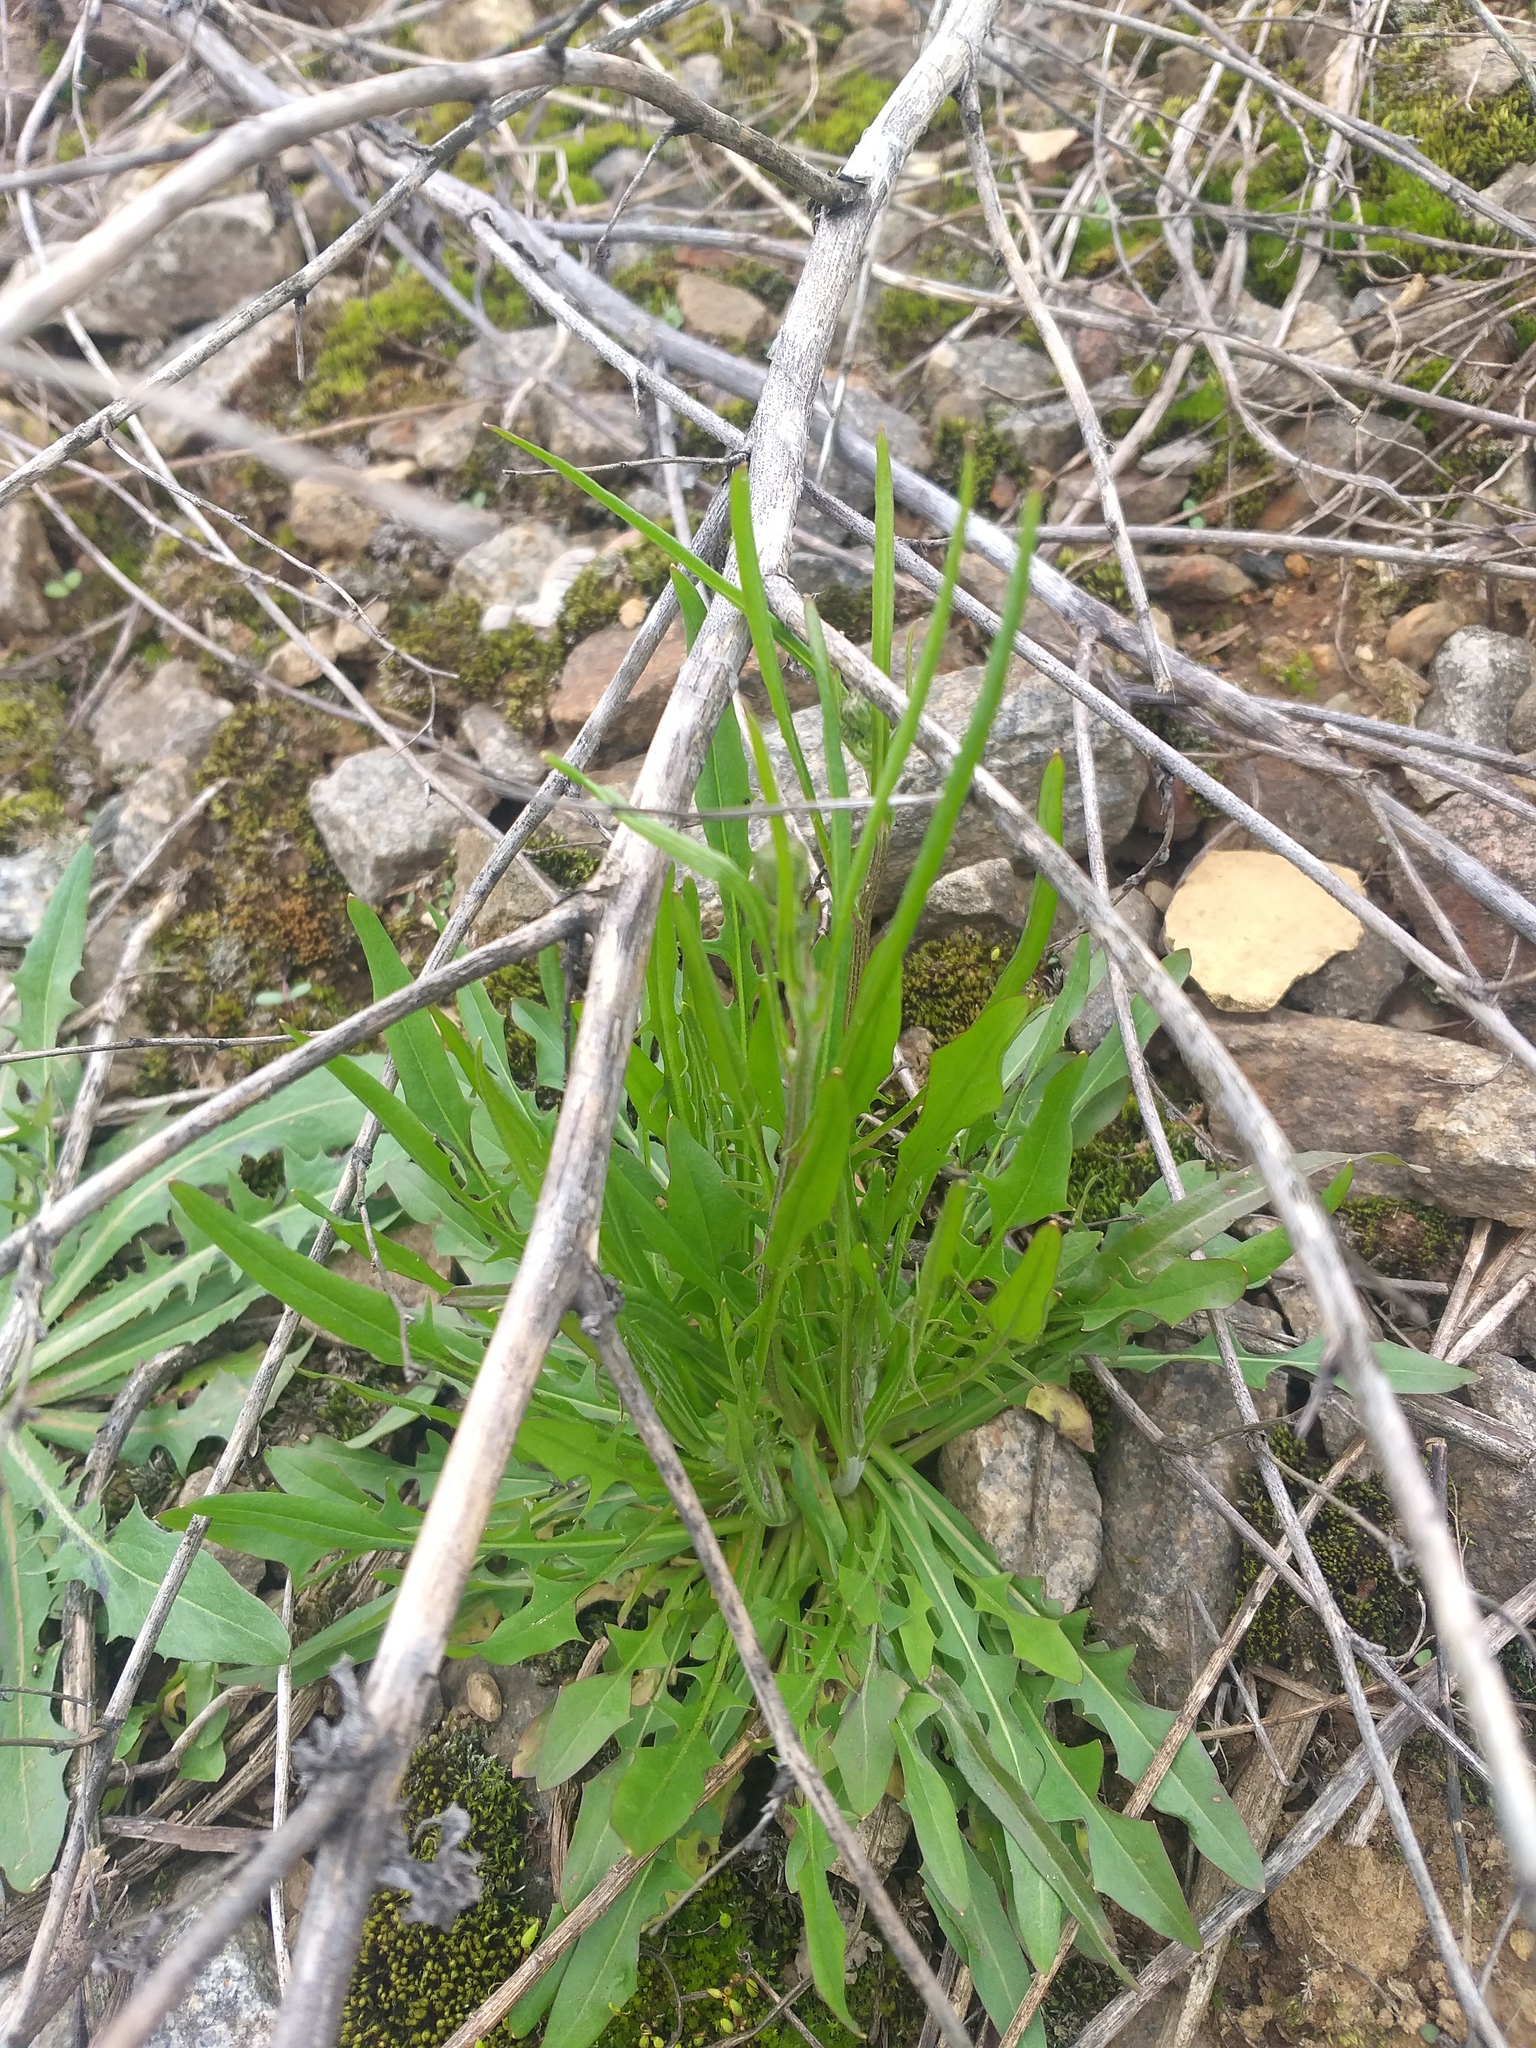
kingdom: Plantae
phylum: Tracheophyta
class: Magnoliopsida
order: Asterales
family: Asteraceae
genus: Crepis
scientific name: Crepis tectorum
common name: Narrow-leaved hawk's-beard
